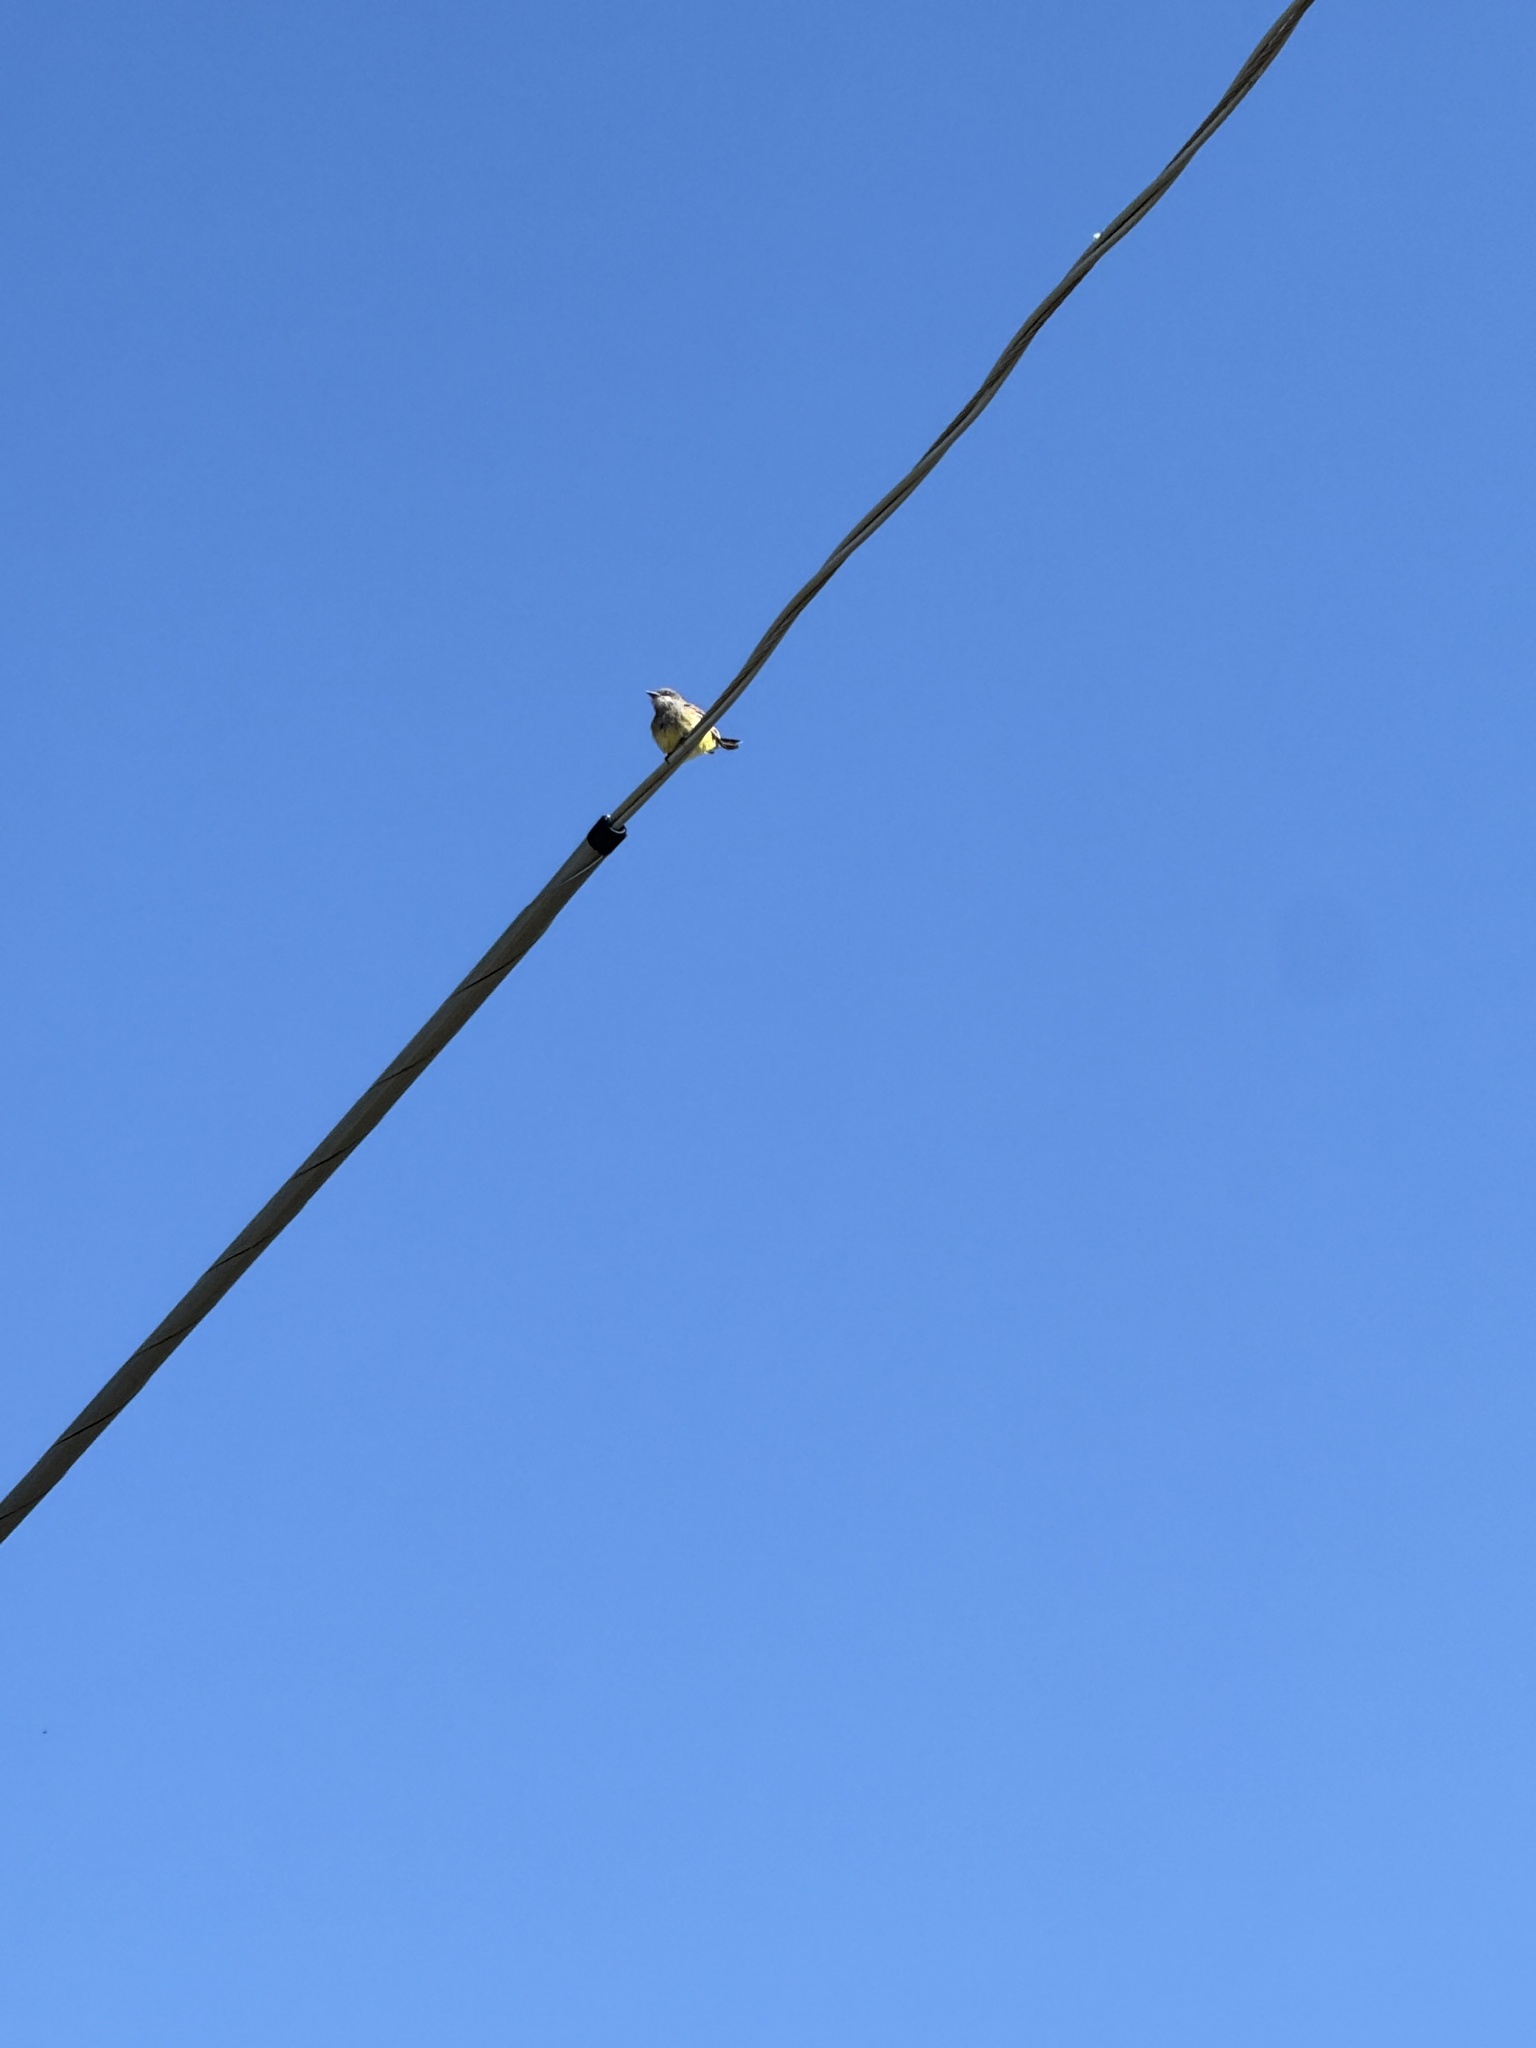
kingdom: Animalia
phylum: Chordata
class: Aves
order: Passeriformes
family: Tyrannidae
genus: Tyrannus
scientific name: Tyrannus vociferans
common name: Cassin's kingbird
